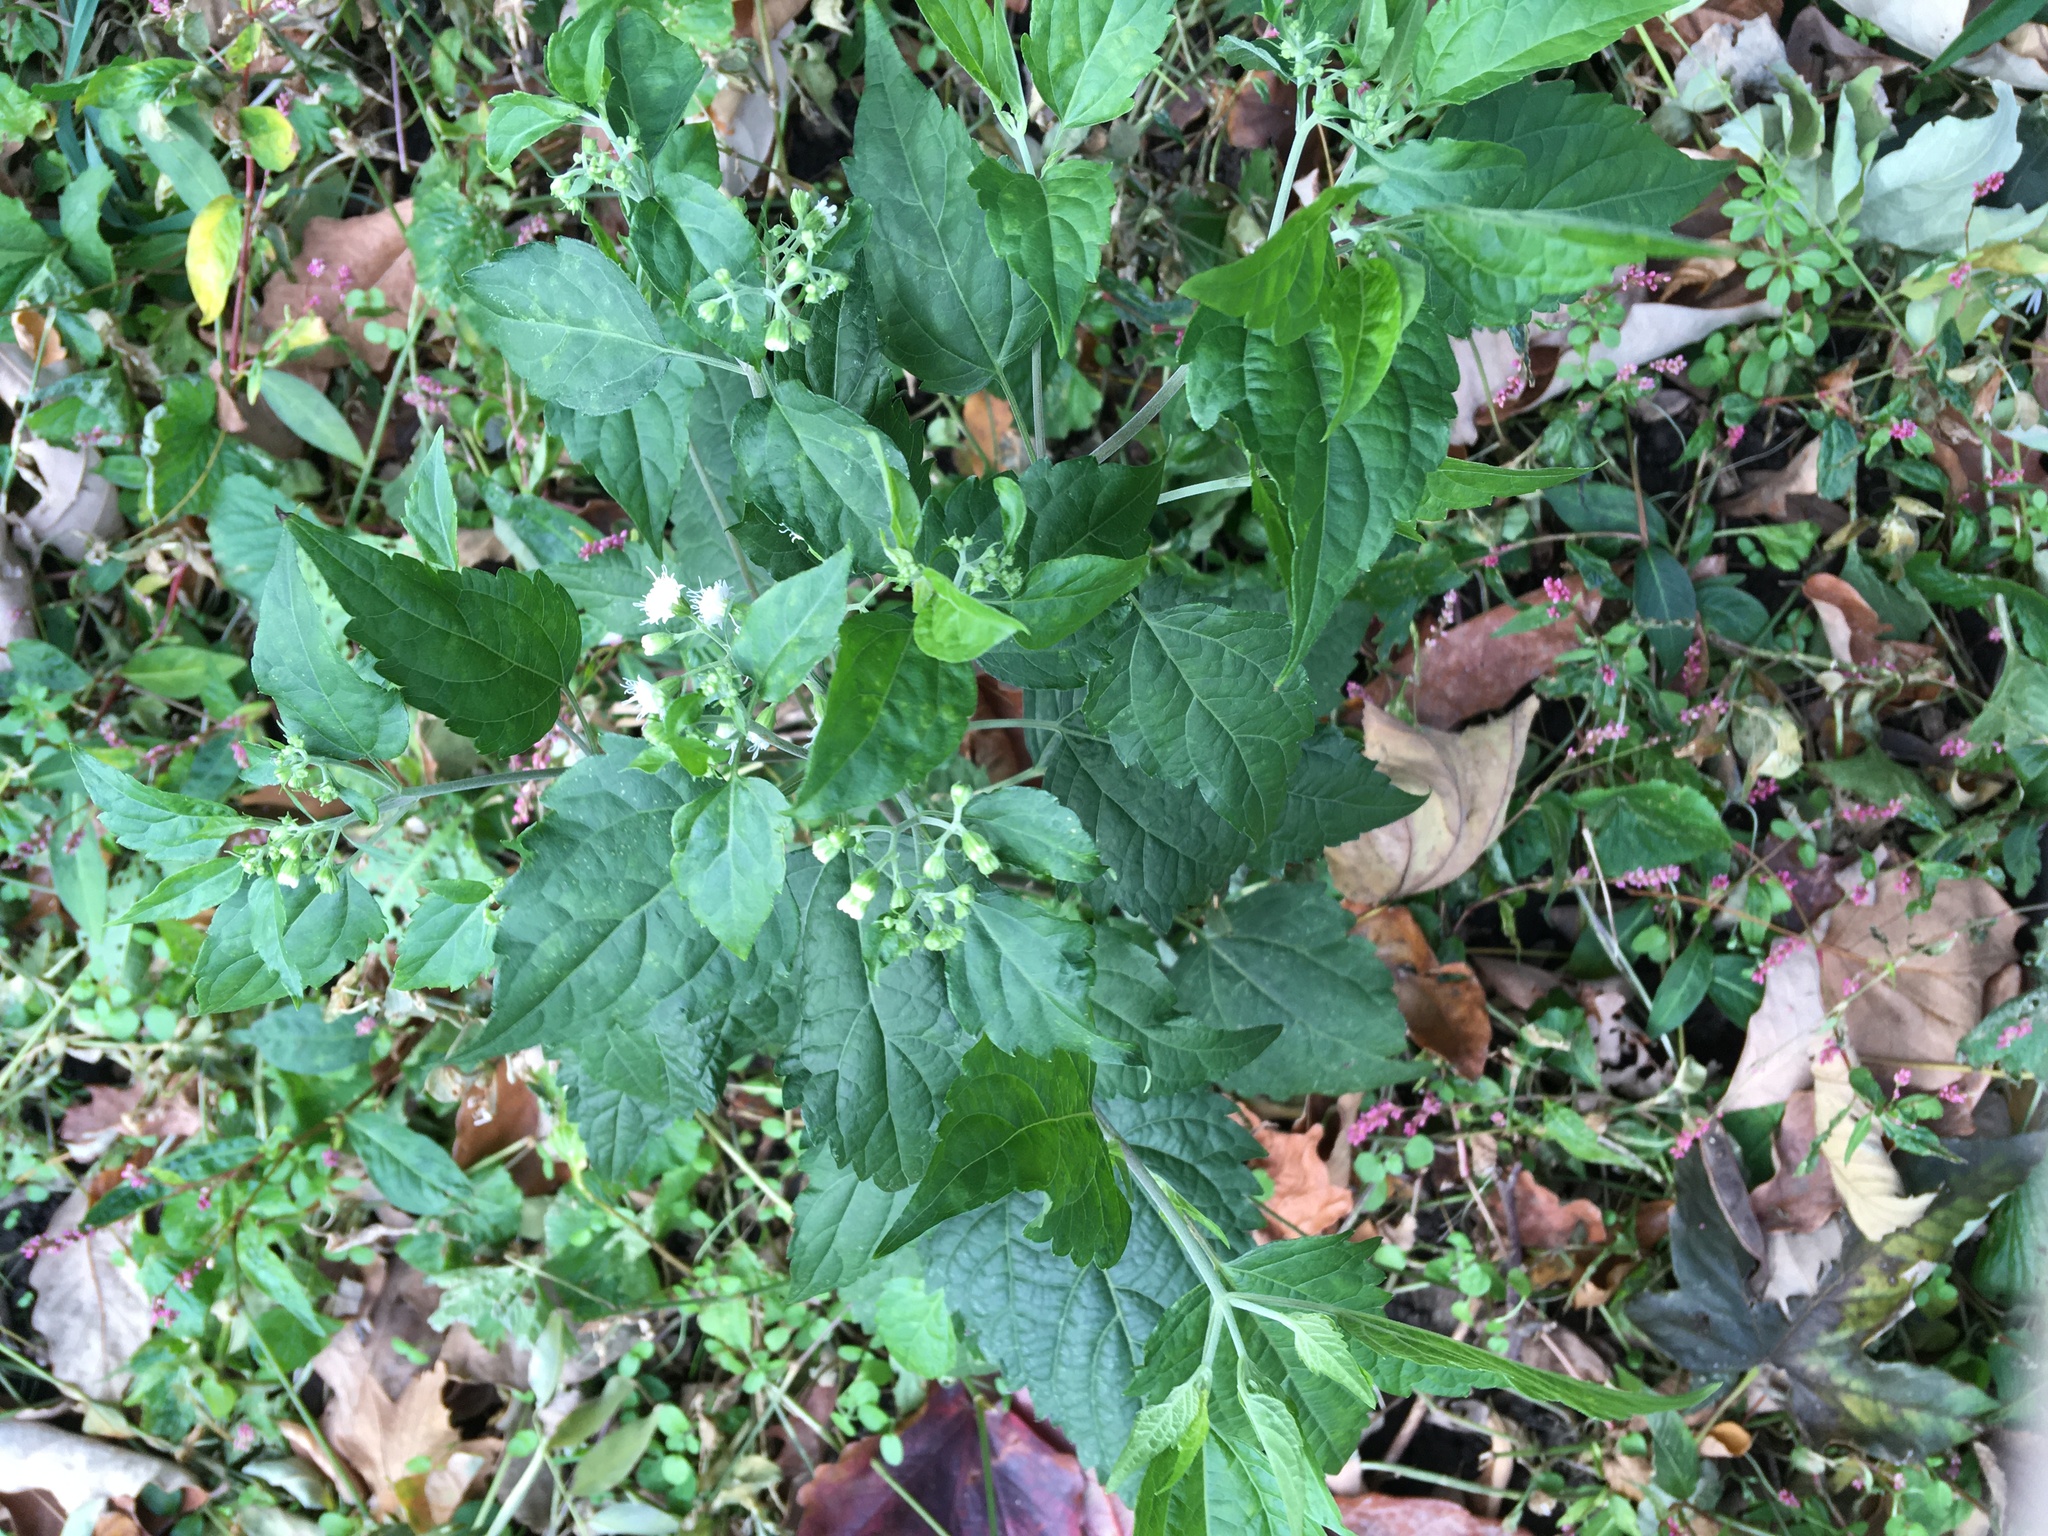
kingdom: Plantae
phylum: Tracheophyta
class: Magnoliopsida
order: Asterales
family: Asteraceae
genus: Ageratina
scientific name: Ageratina altissima
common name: White snakeroot
